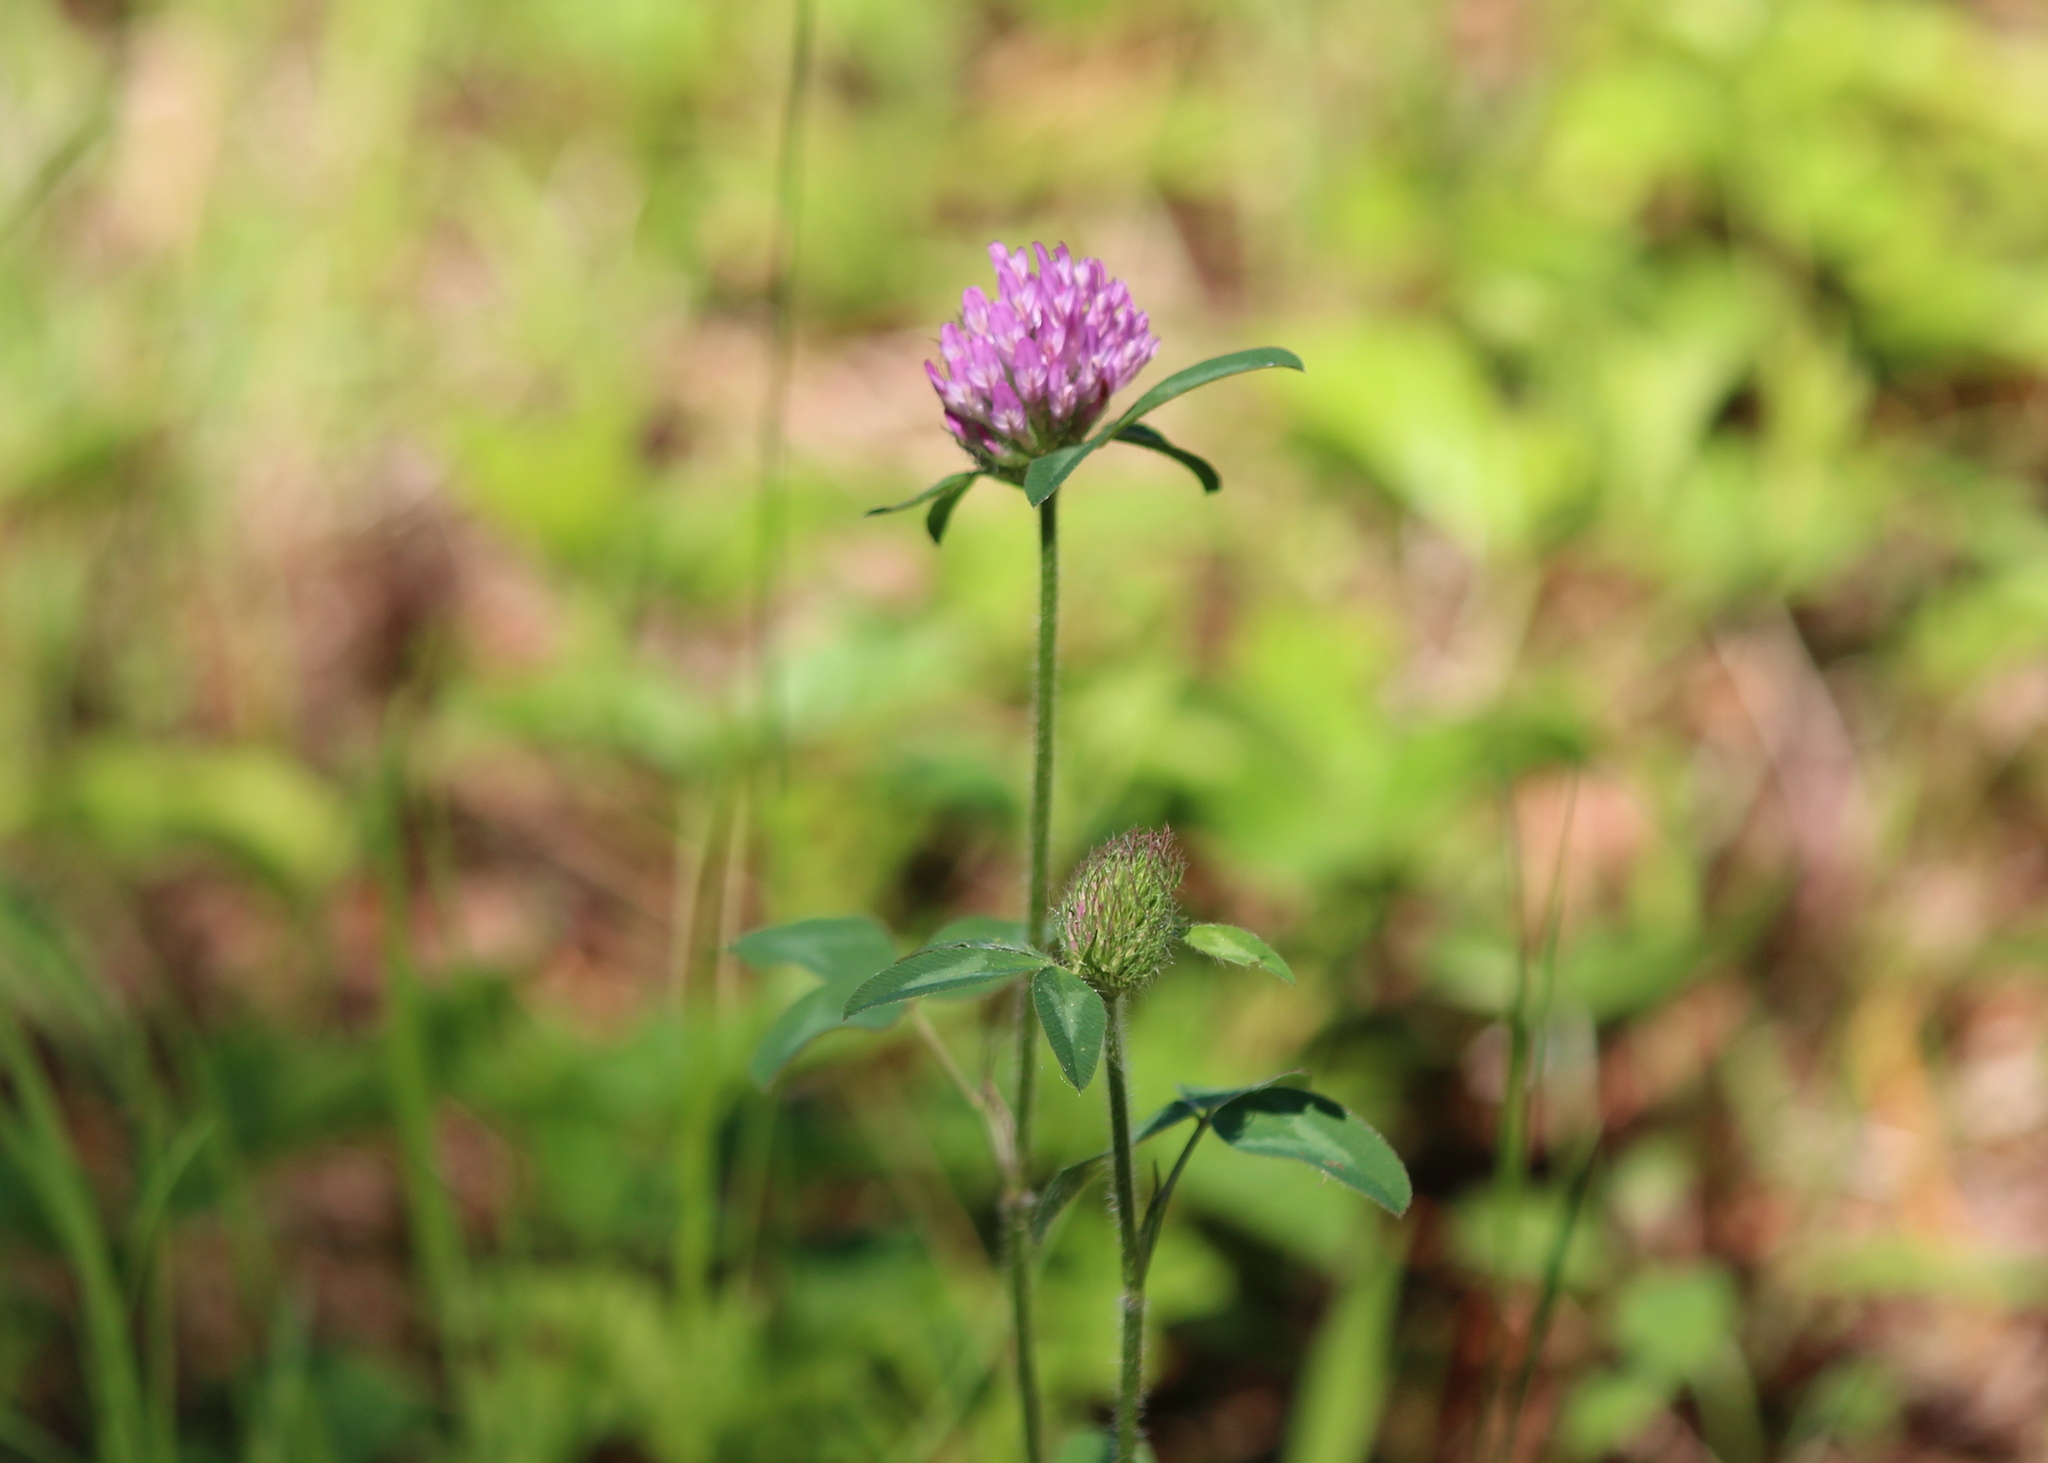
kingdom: Plantae
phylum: Tracheophyta
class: Magnoliopsida
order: Fabales
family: Fabaceae
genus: Trifolium
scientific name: Trifolium pratense
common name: Red clover
